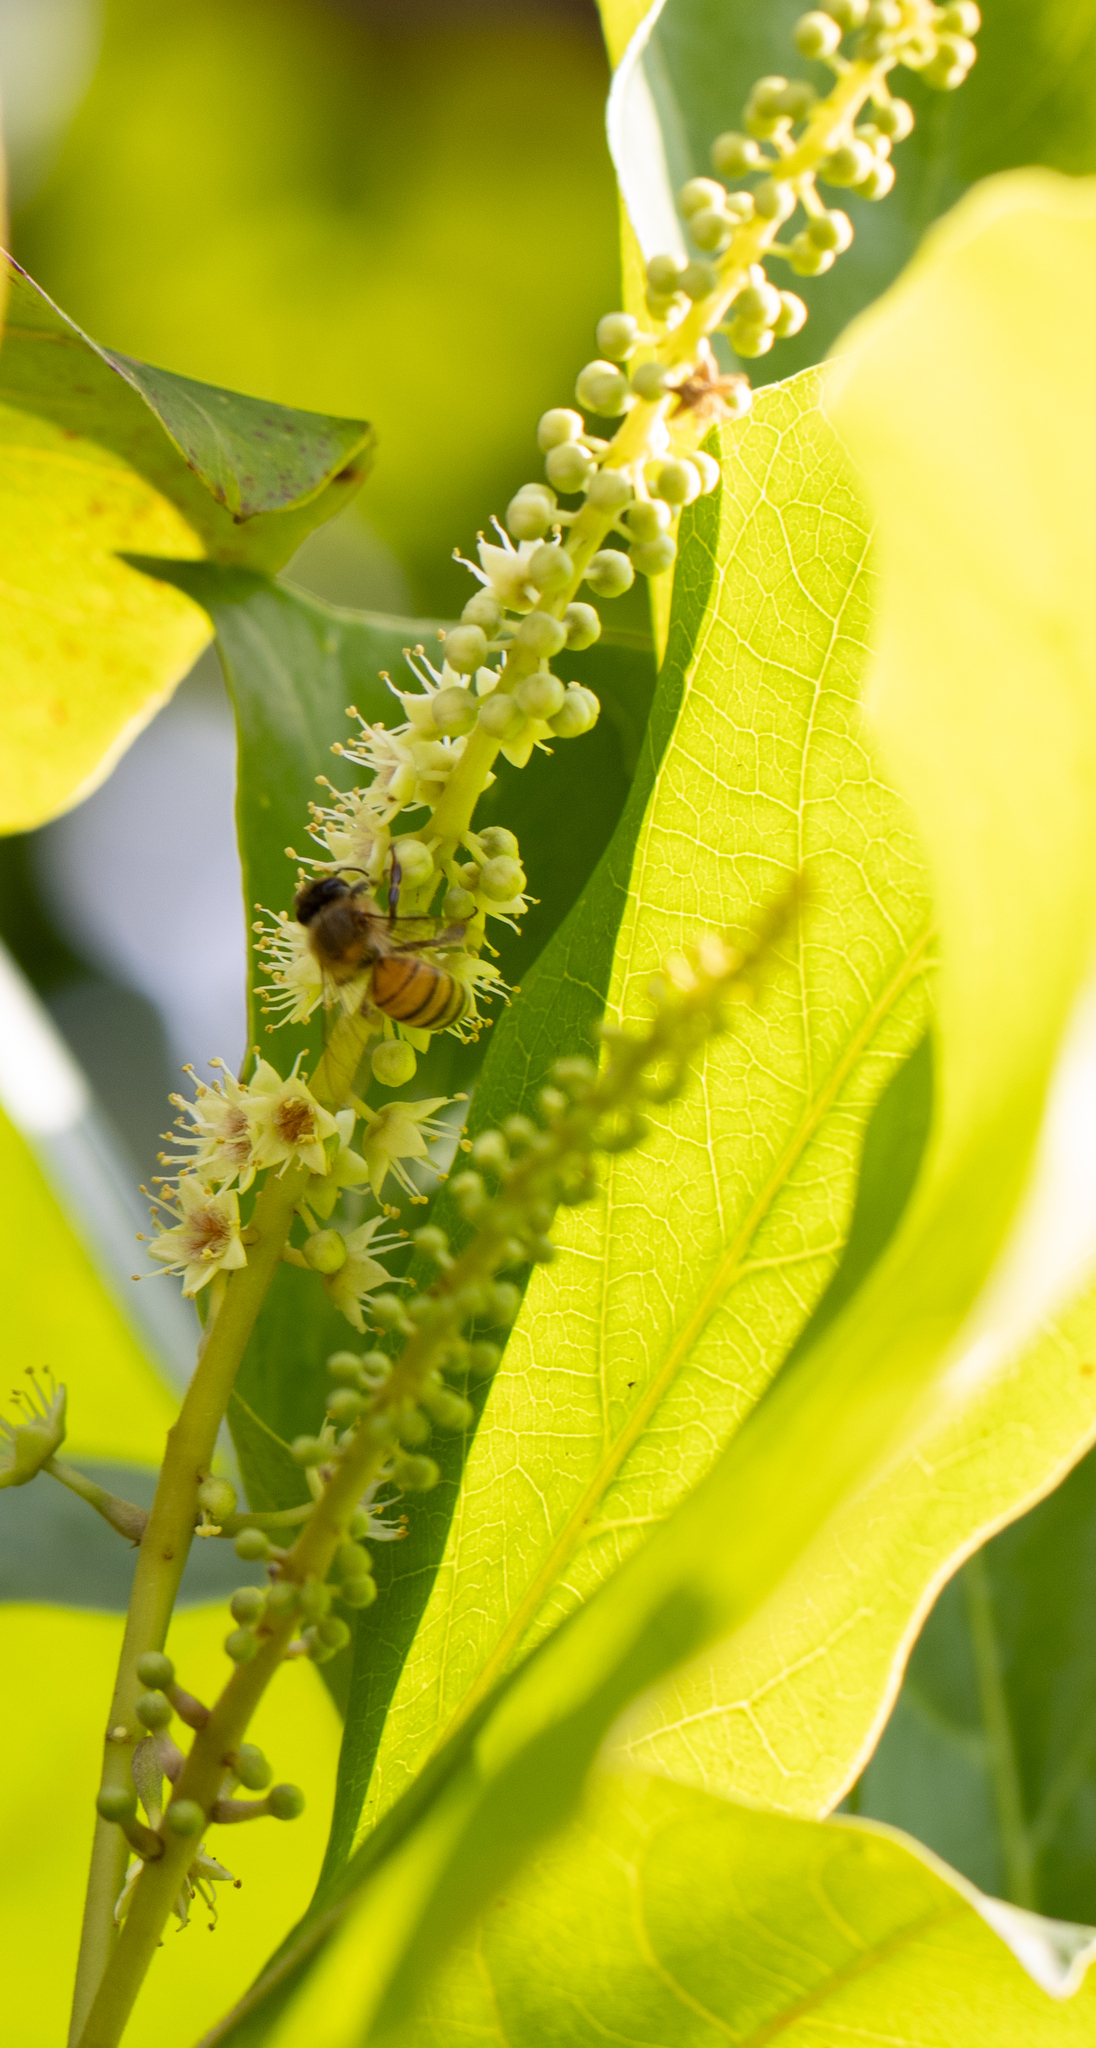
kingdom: Animalia
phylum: Arthropoda
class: Insecta
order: Hymenoptera
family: Apidae
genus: Apis
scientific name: Apis mellifera
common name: Honey bee
